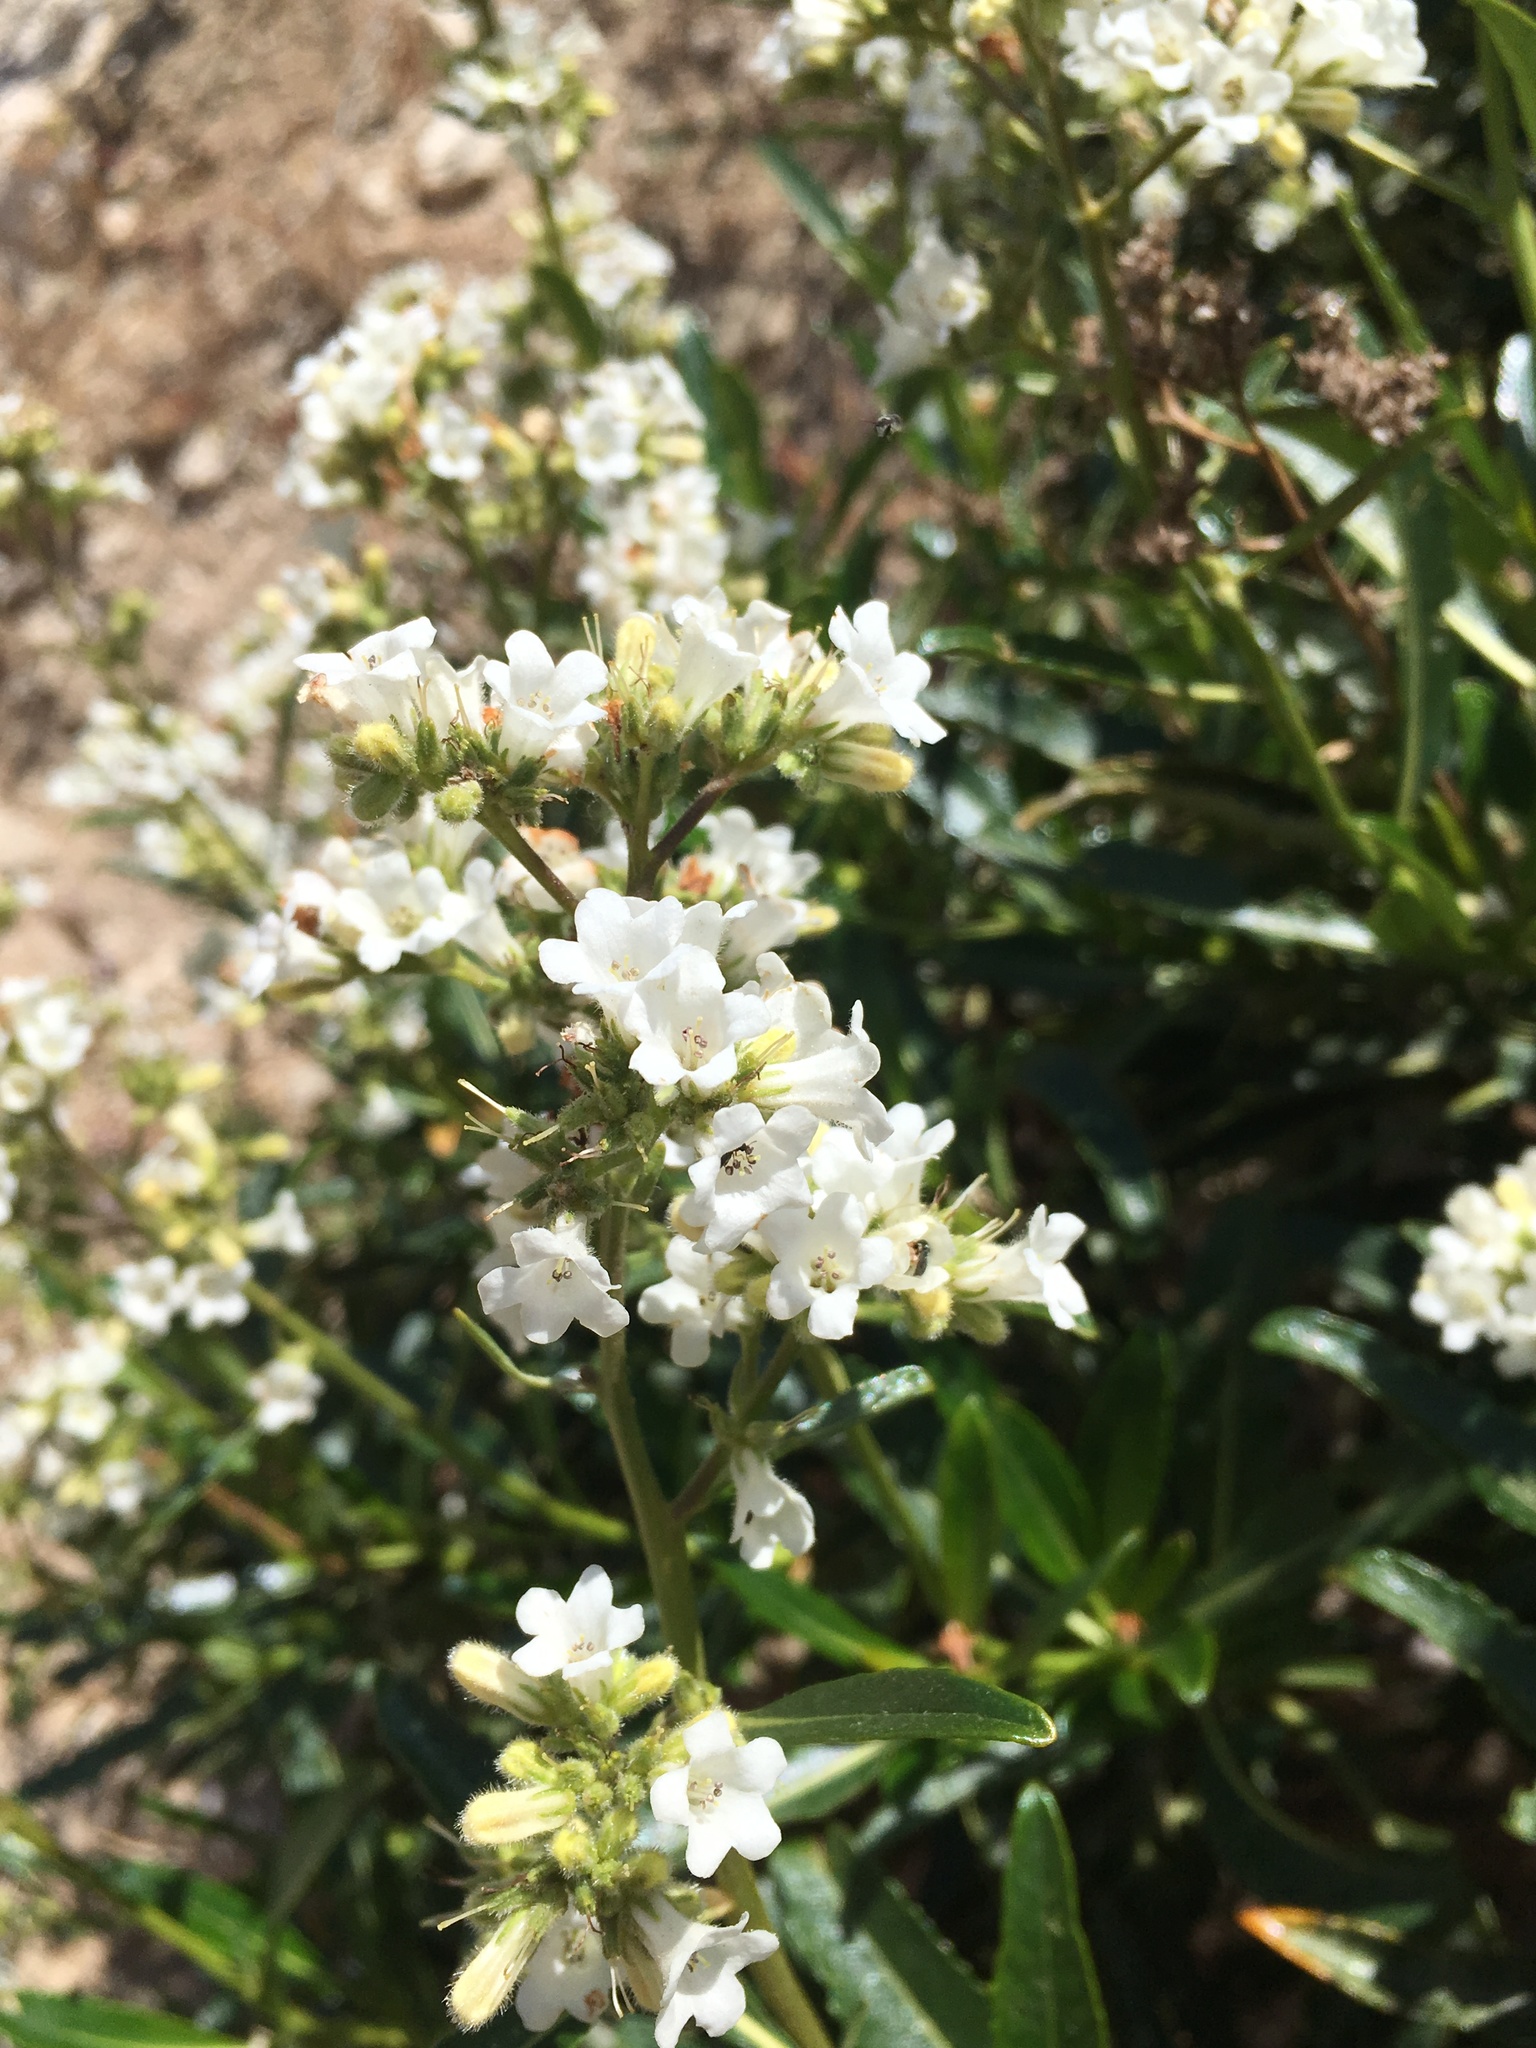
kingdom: Plantae
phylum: Tracheophyta
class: Magnoliopsida
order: Boraginales
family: Namaceae
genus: Eriodictyon
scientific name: Eriodictyon trichocalyx
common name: Hairy yerba-santa
